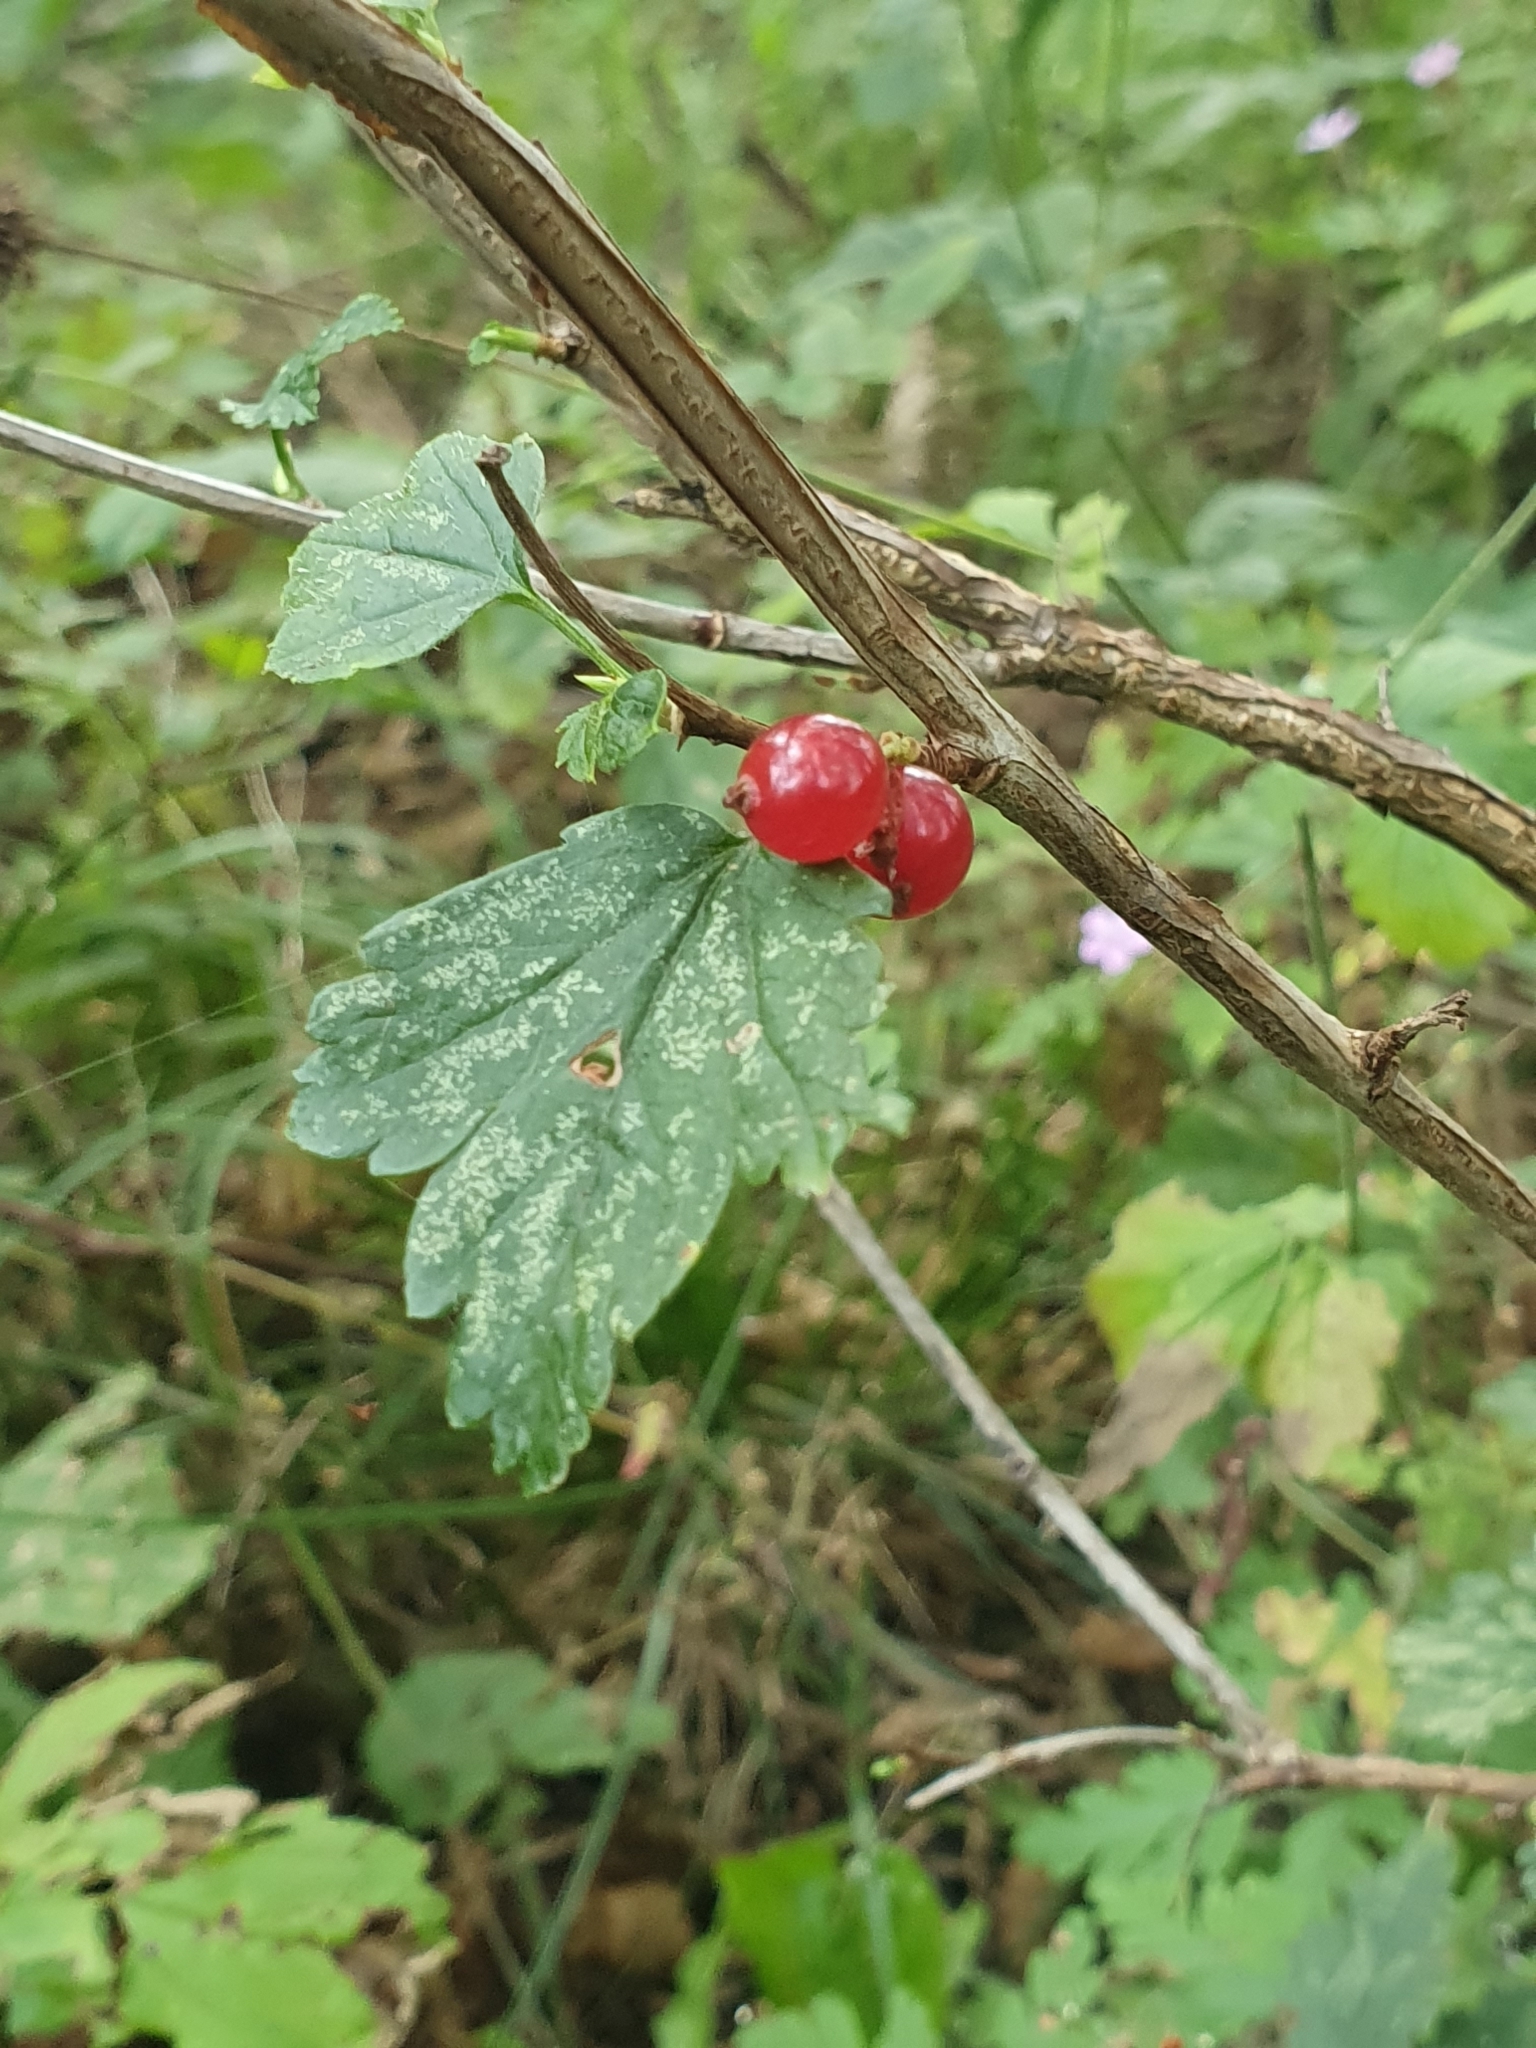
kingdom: Plantae
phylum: Tracheophyta
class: Magnoliopsida
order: Saxifragales
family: Grossulariaceae
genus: Ribes
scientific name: Ribes alpinum
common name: Alpine currant
